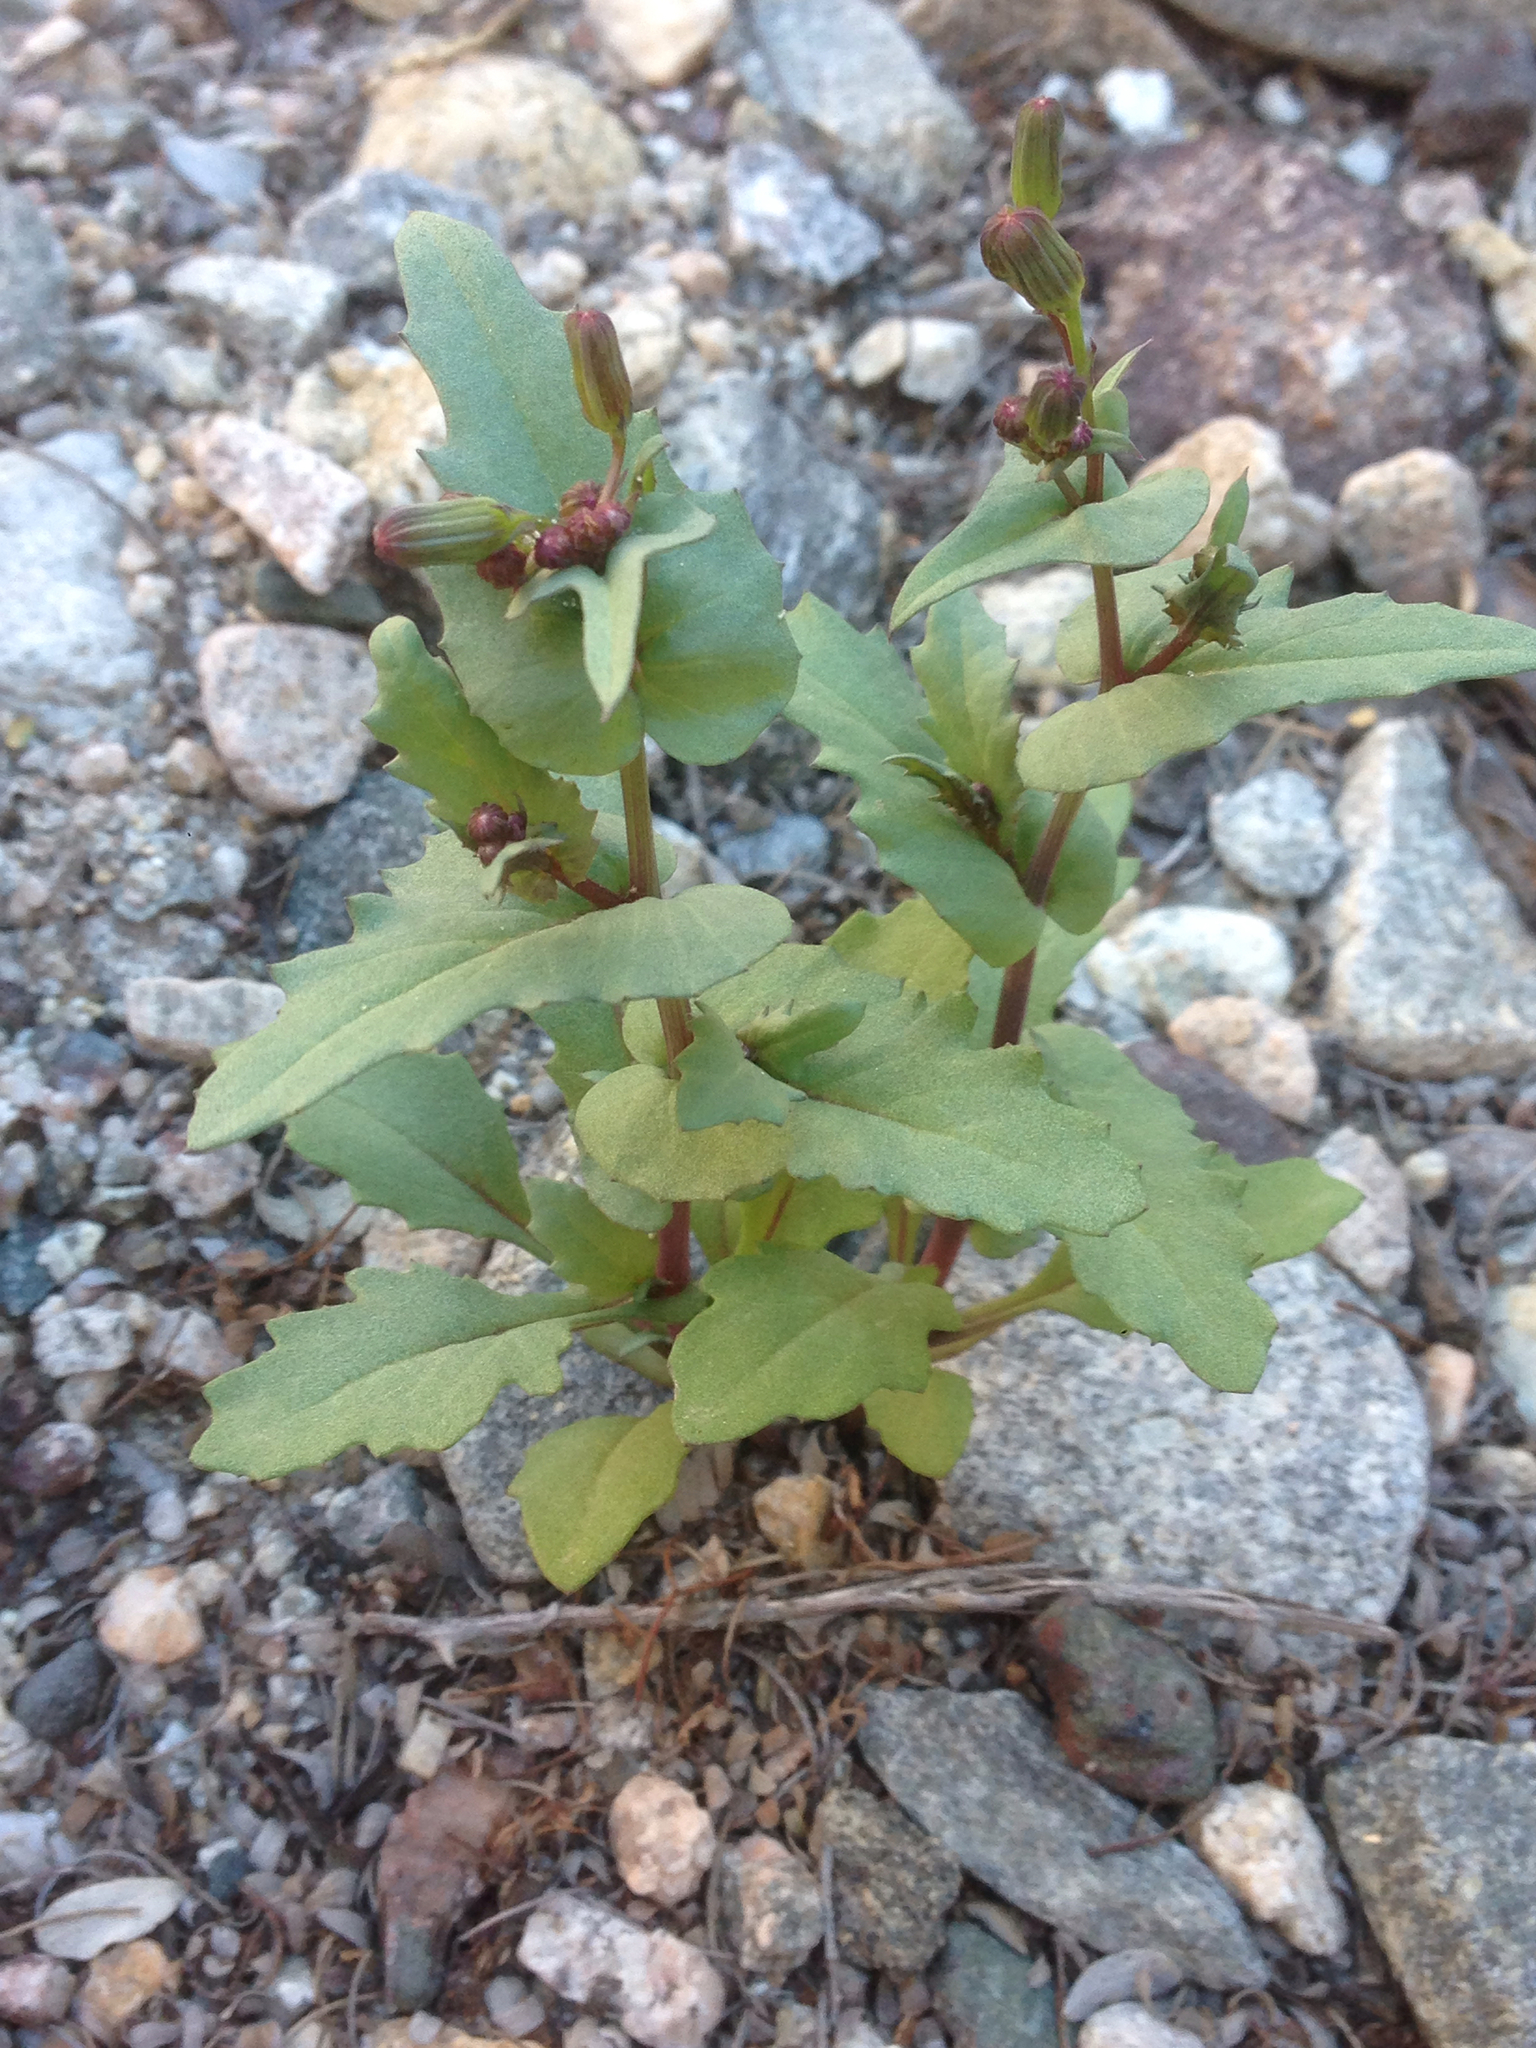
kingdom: Plantae
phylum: Tracheophyta
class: Magnoliopsida
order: Asterales
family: Asteraceae
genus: Senecio
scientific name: Senecio mohavensis
